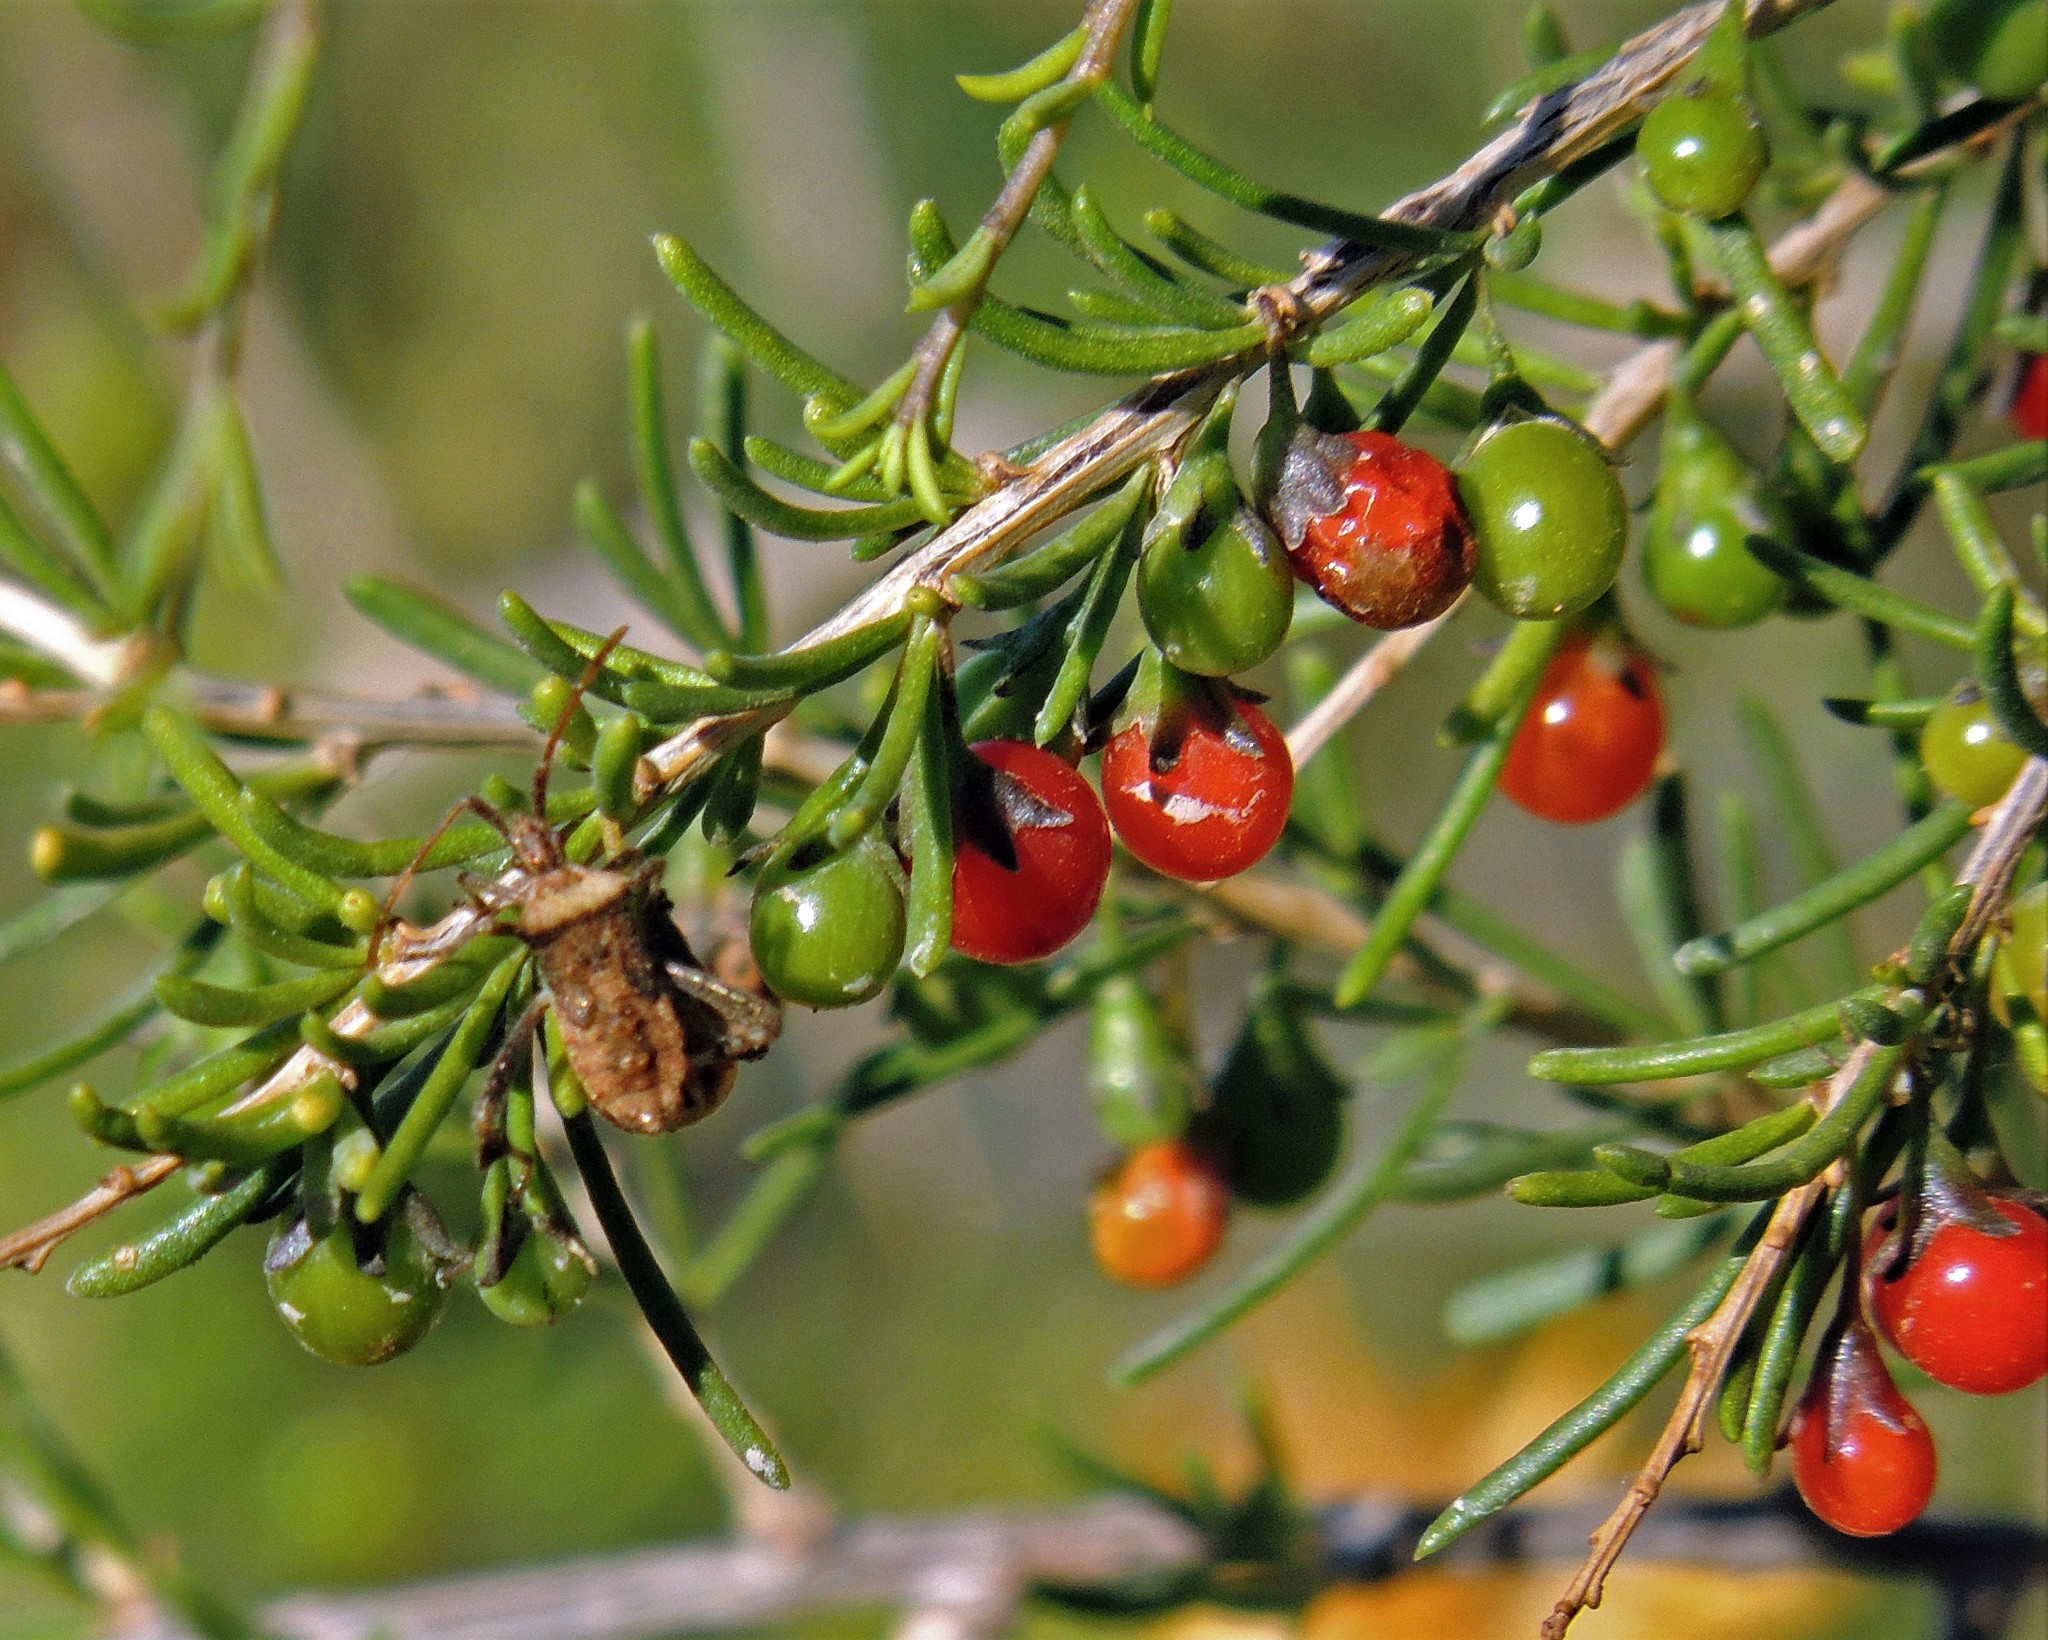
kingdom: Plantae
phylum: Tracheophyta
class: Magnoliopsida
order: Solanales
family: Solanaceae
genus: Lycium
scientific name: Lycium chilense
